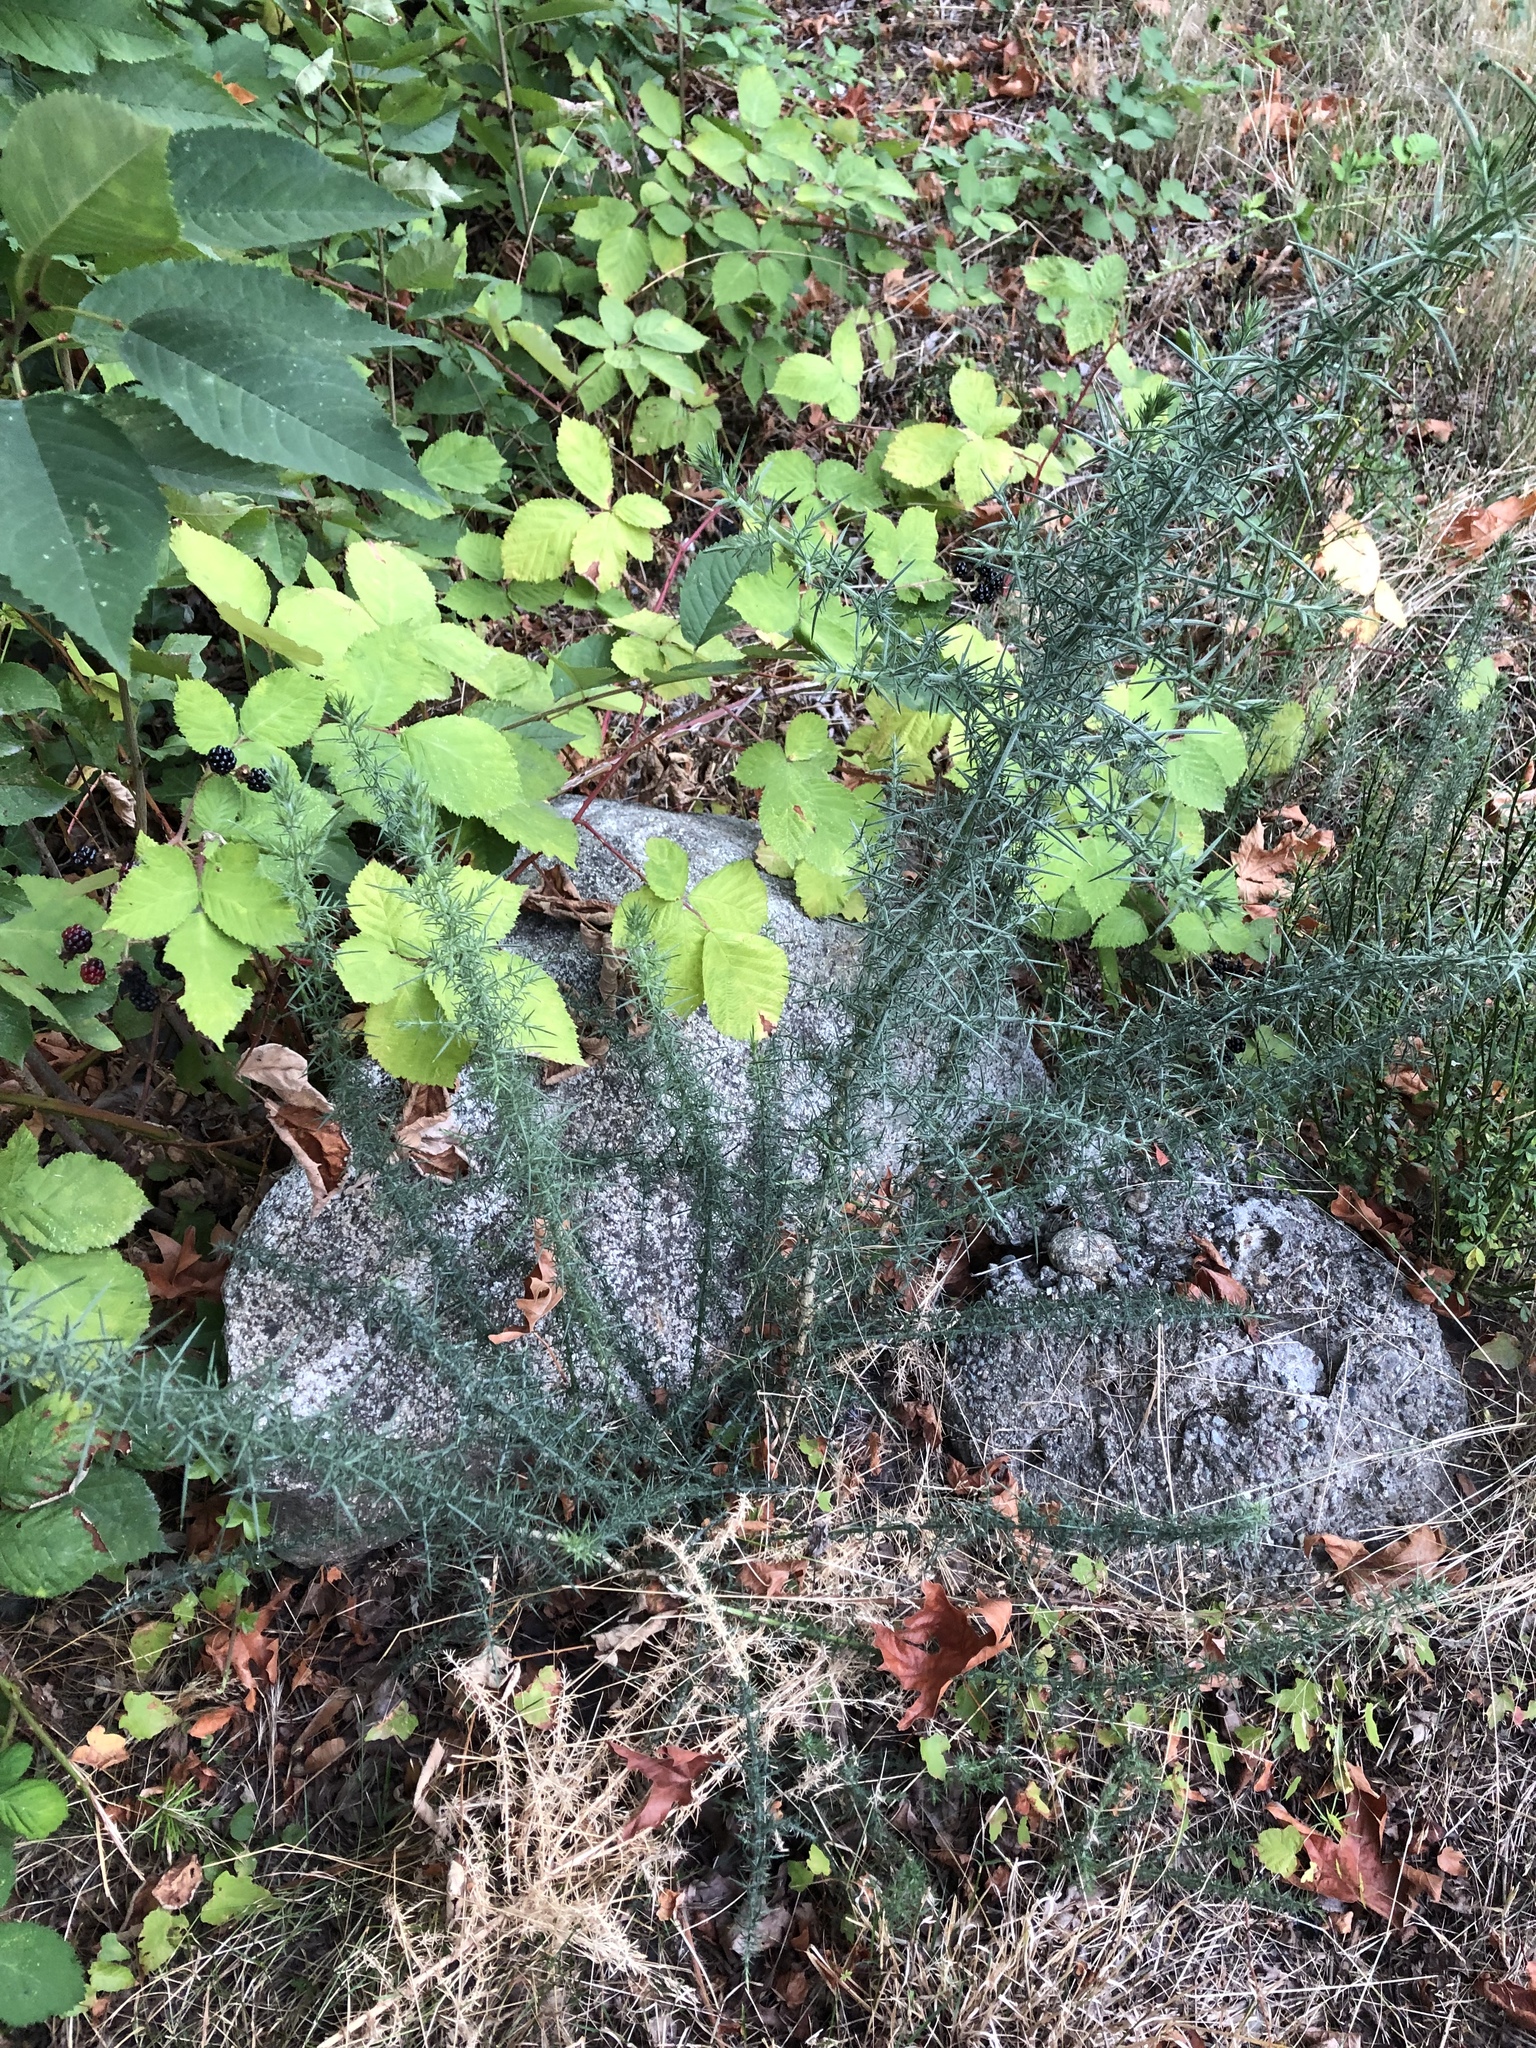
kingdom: Plantae
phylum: Tracheophyta
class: Magnoliopsida
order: Fabales
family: Fabaceae
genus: Ulex
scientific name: Ulex europaeus
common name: Common gorse
